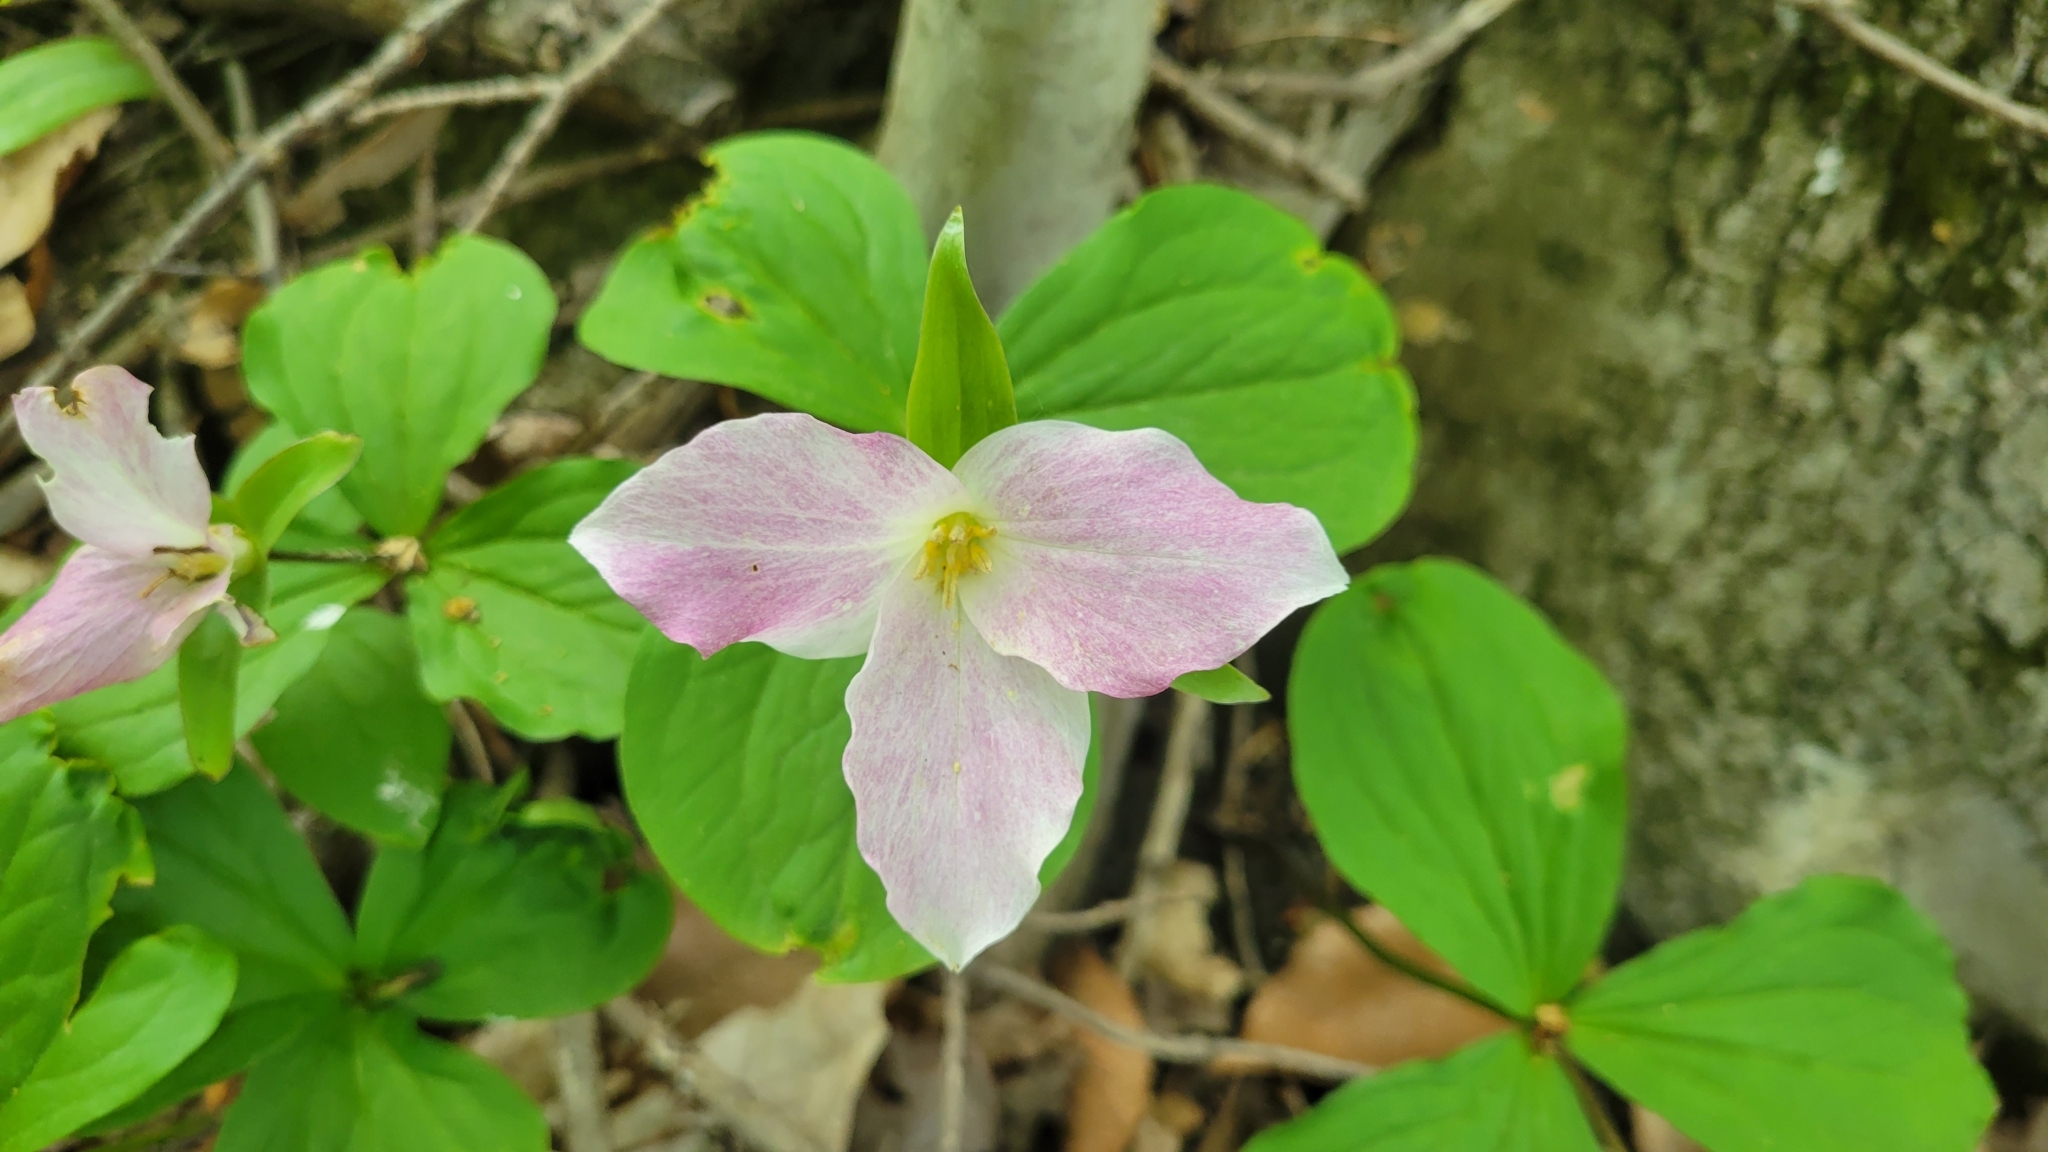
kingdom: Plantae
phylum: Tracheophyta
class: Liliopsida
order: Liliales
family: Melanthiaceae
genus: Trillium
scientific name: Trillium grandiflorum
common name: Great white trillium
